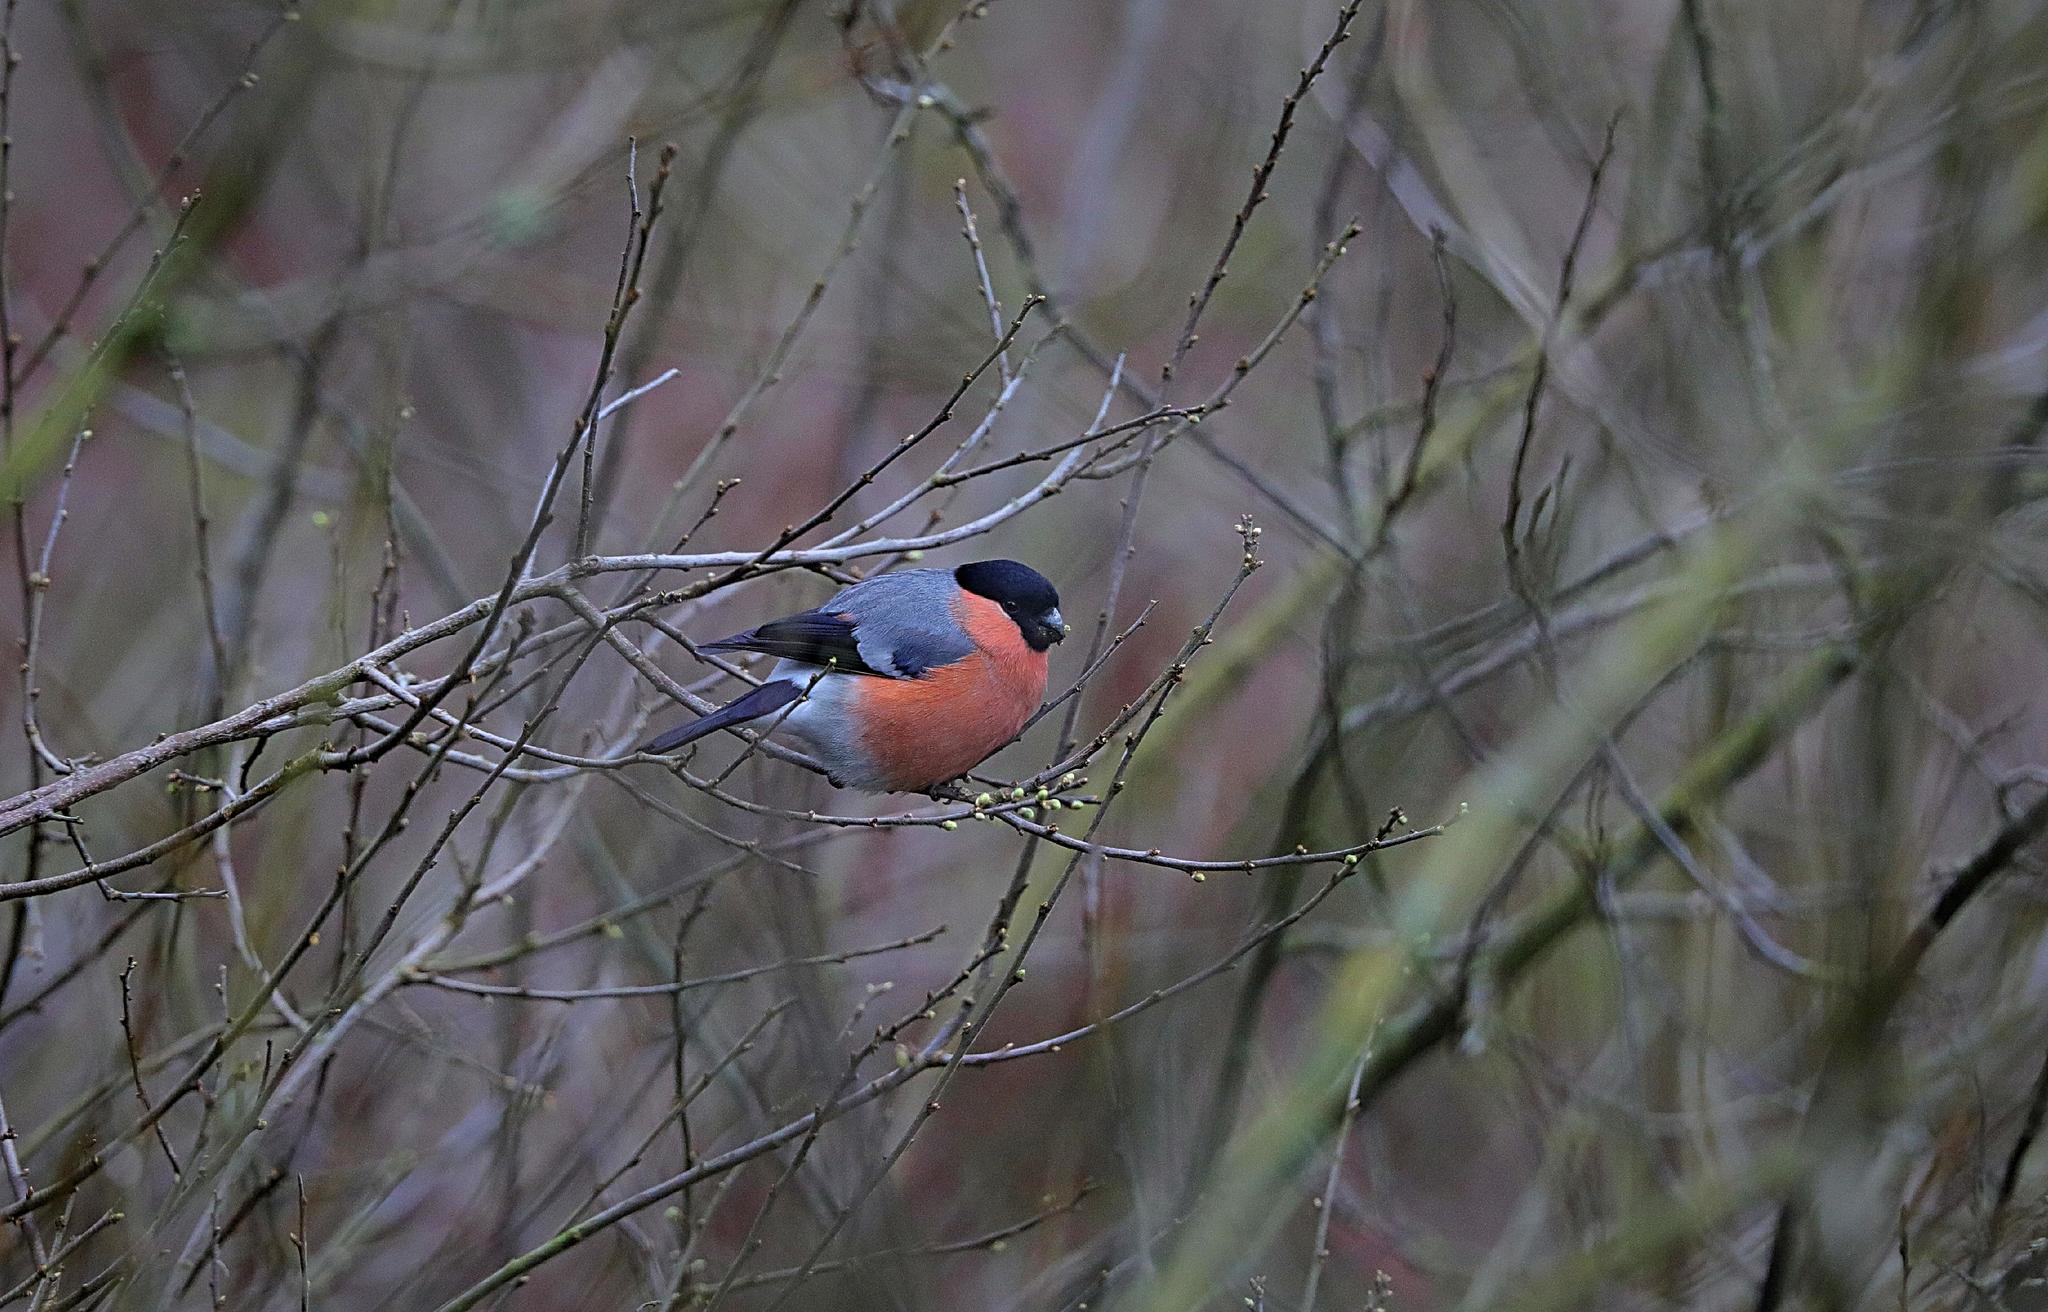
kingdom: Animalia
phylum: Chordata
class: Aves
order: Passeriformes
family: Fringillidae
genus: Pyrrhula
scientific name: Pyrrhula pyrrhula
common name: Eurasian bullfinch
